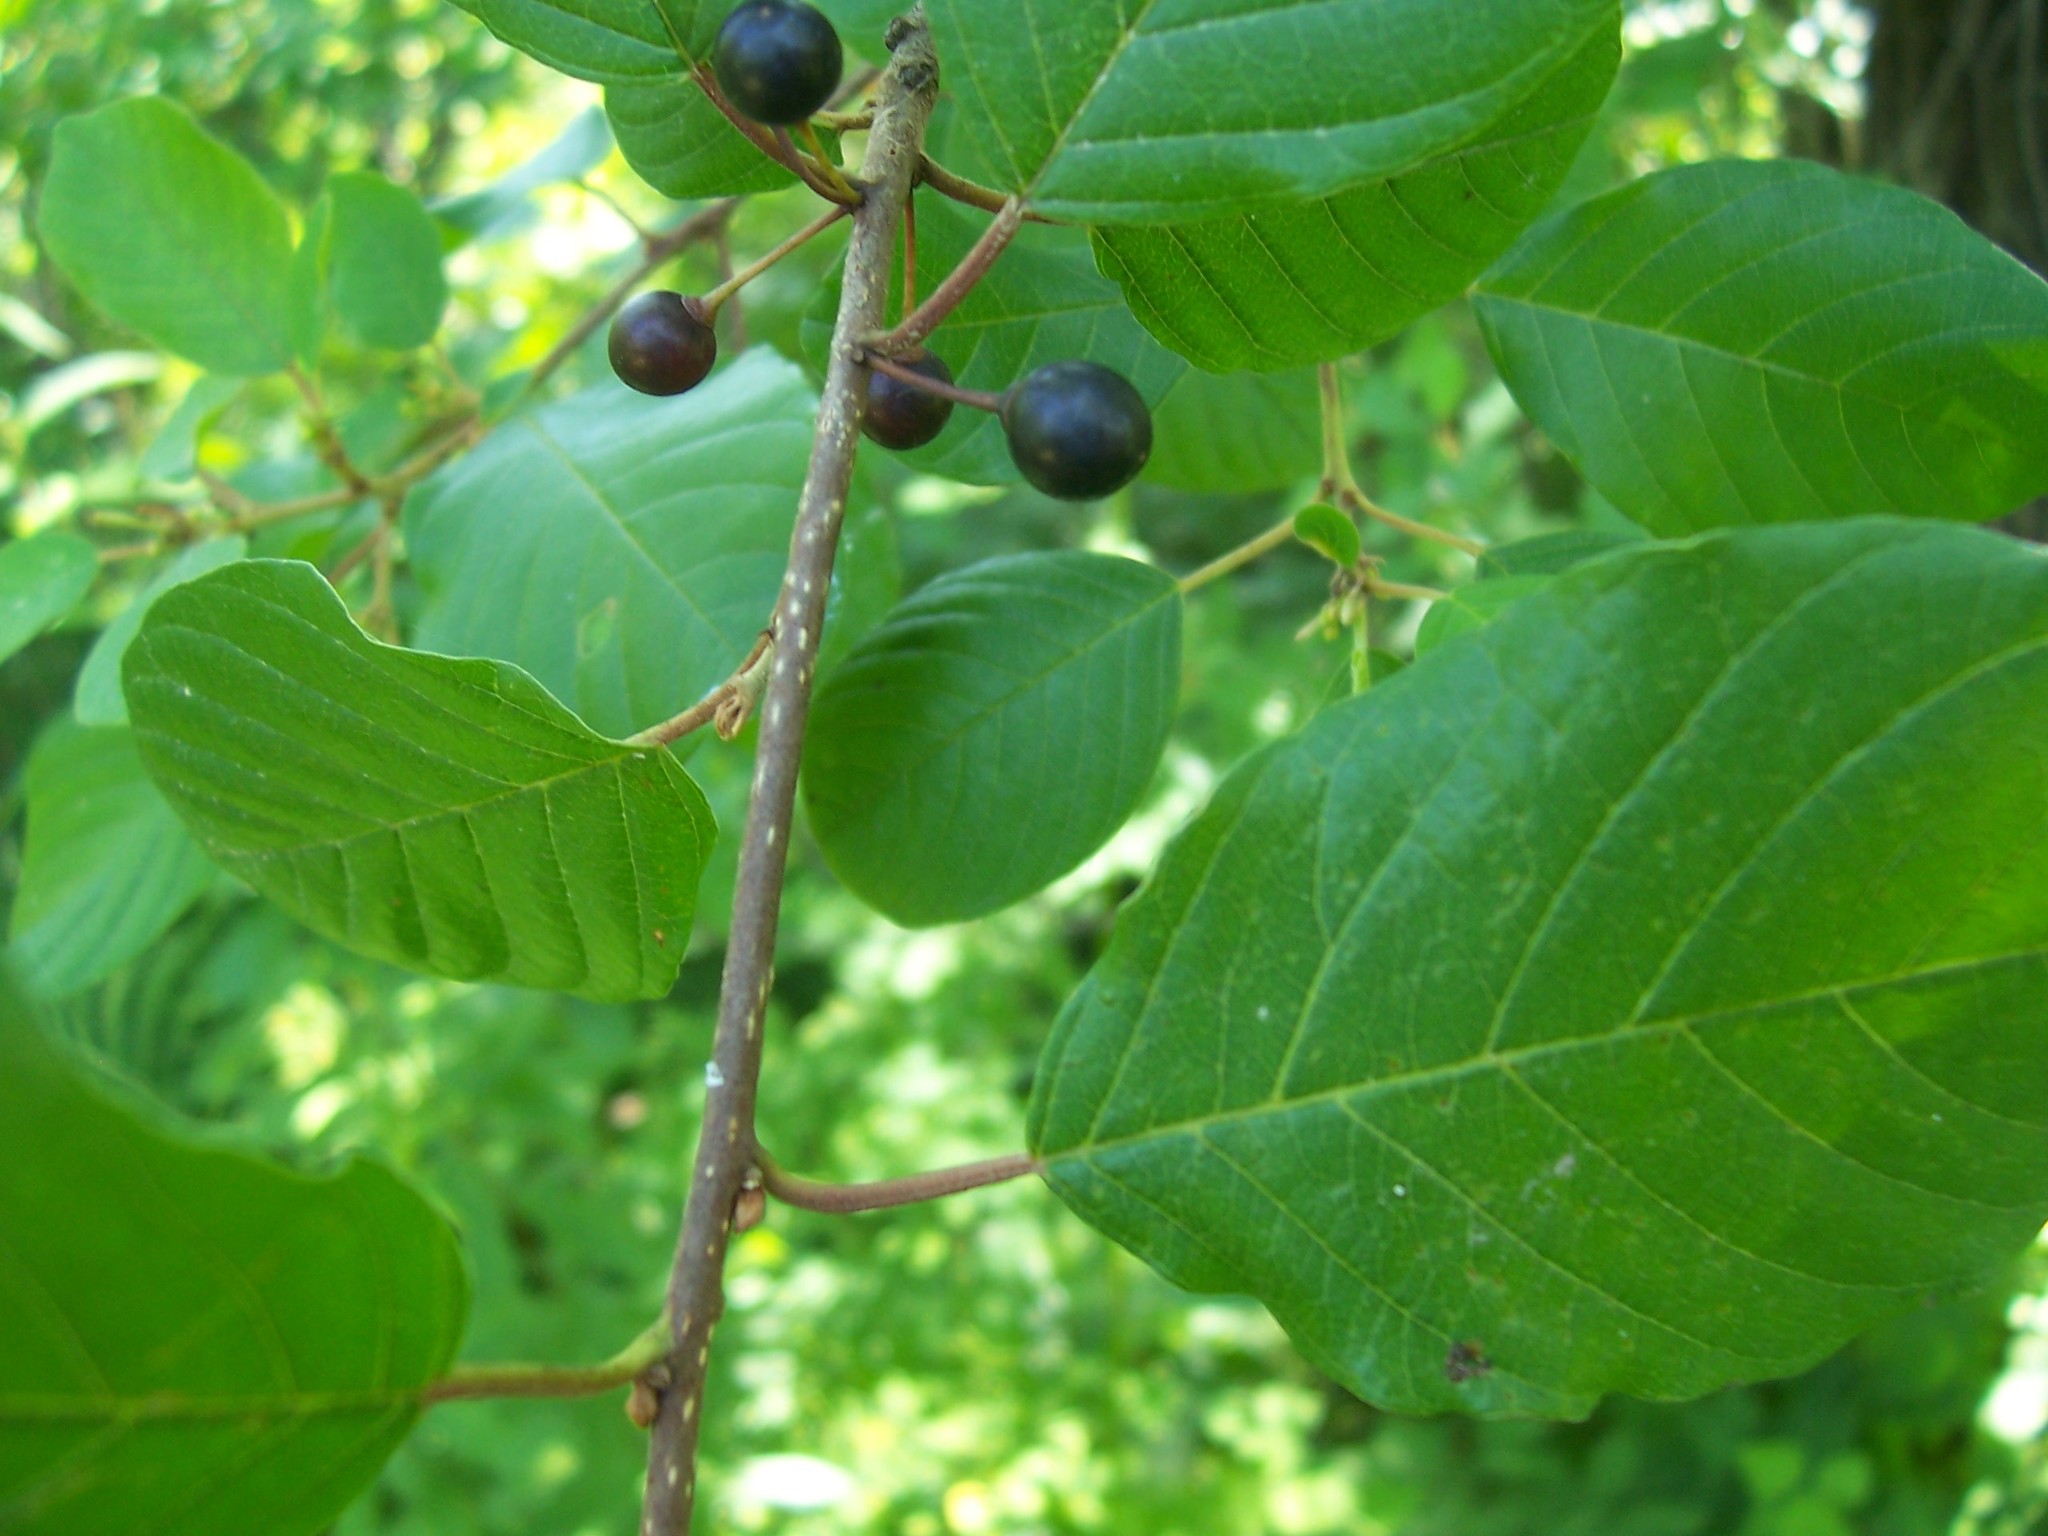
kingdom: Plantae
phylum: Tracheophyta
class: Magnoliopsida
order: Rosales
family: Rhamnaceae
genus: Frangula
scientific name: Frangula alnus
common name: Alder buckthorn
